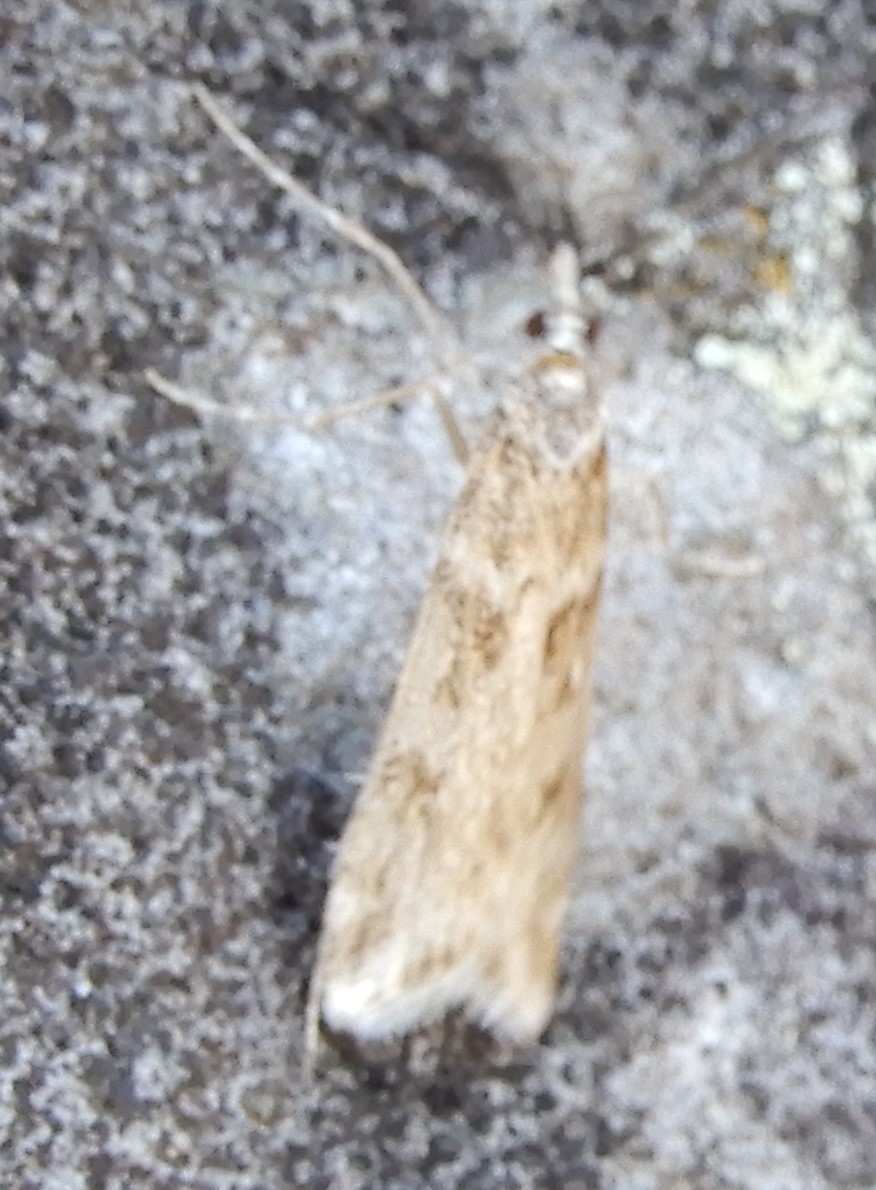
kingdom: Animalia
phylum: Arthropoda
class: Insecta
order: Lepidoptera
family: Crambidae
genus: Eudonia
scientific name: Eudonia angustea
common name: Narrow-winged grey
